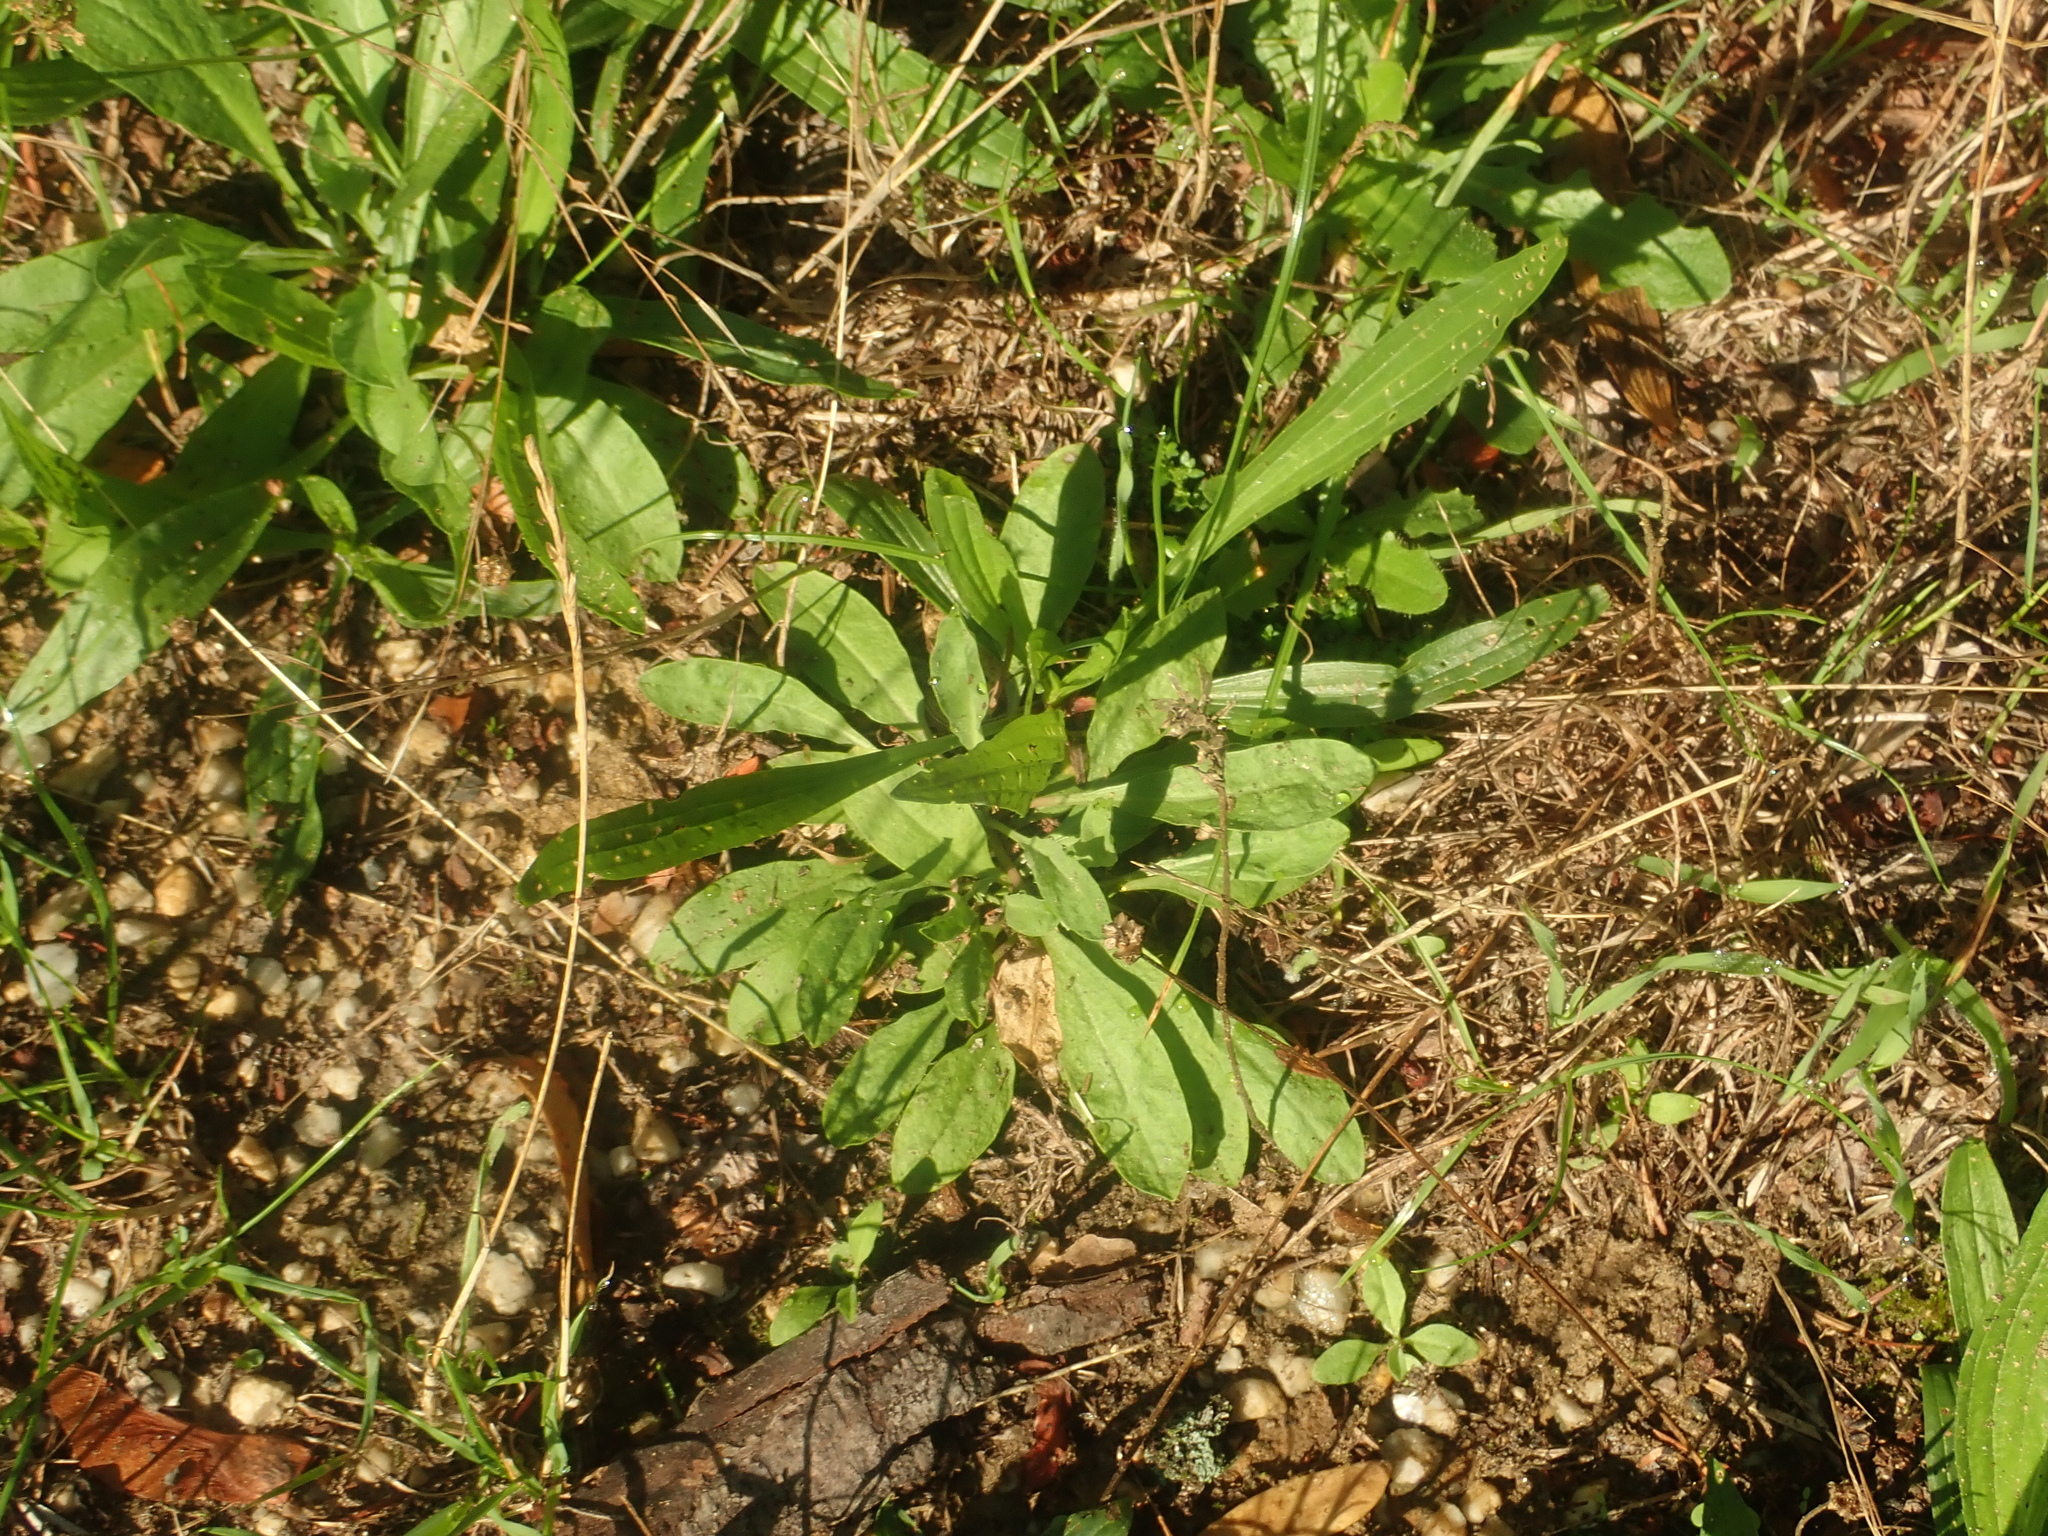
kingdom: Plantae
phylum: Tracheophyta
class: Magnoliopsida
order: Lamiales
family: Plantaginaceae
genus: Plantago
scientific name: Plantago lanceolata
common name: Ribwort plantain
